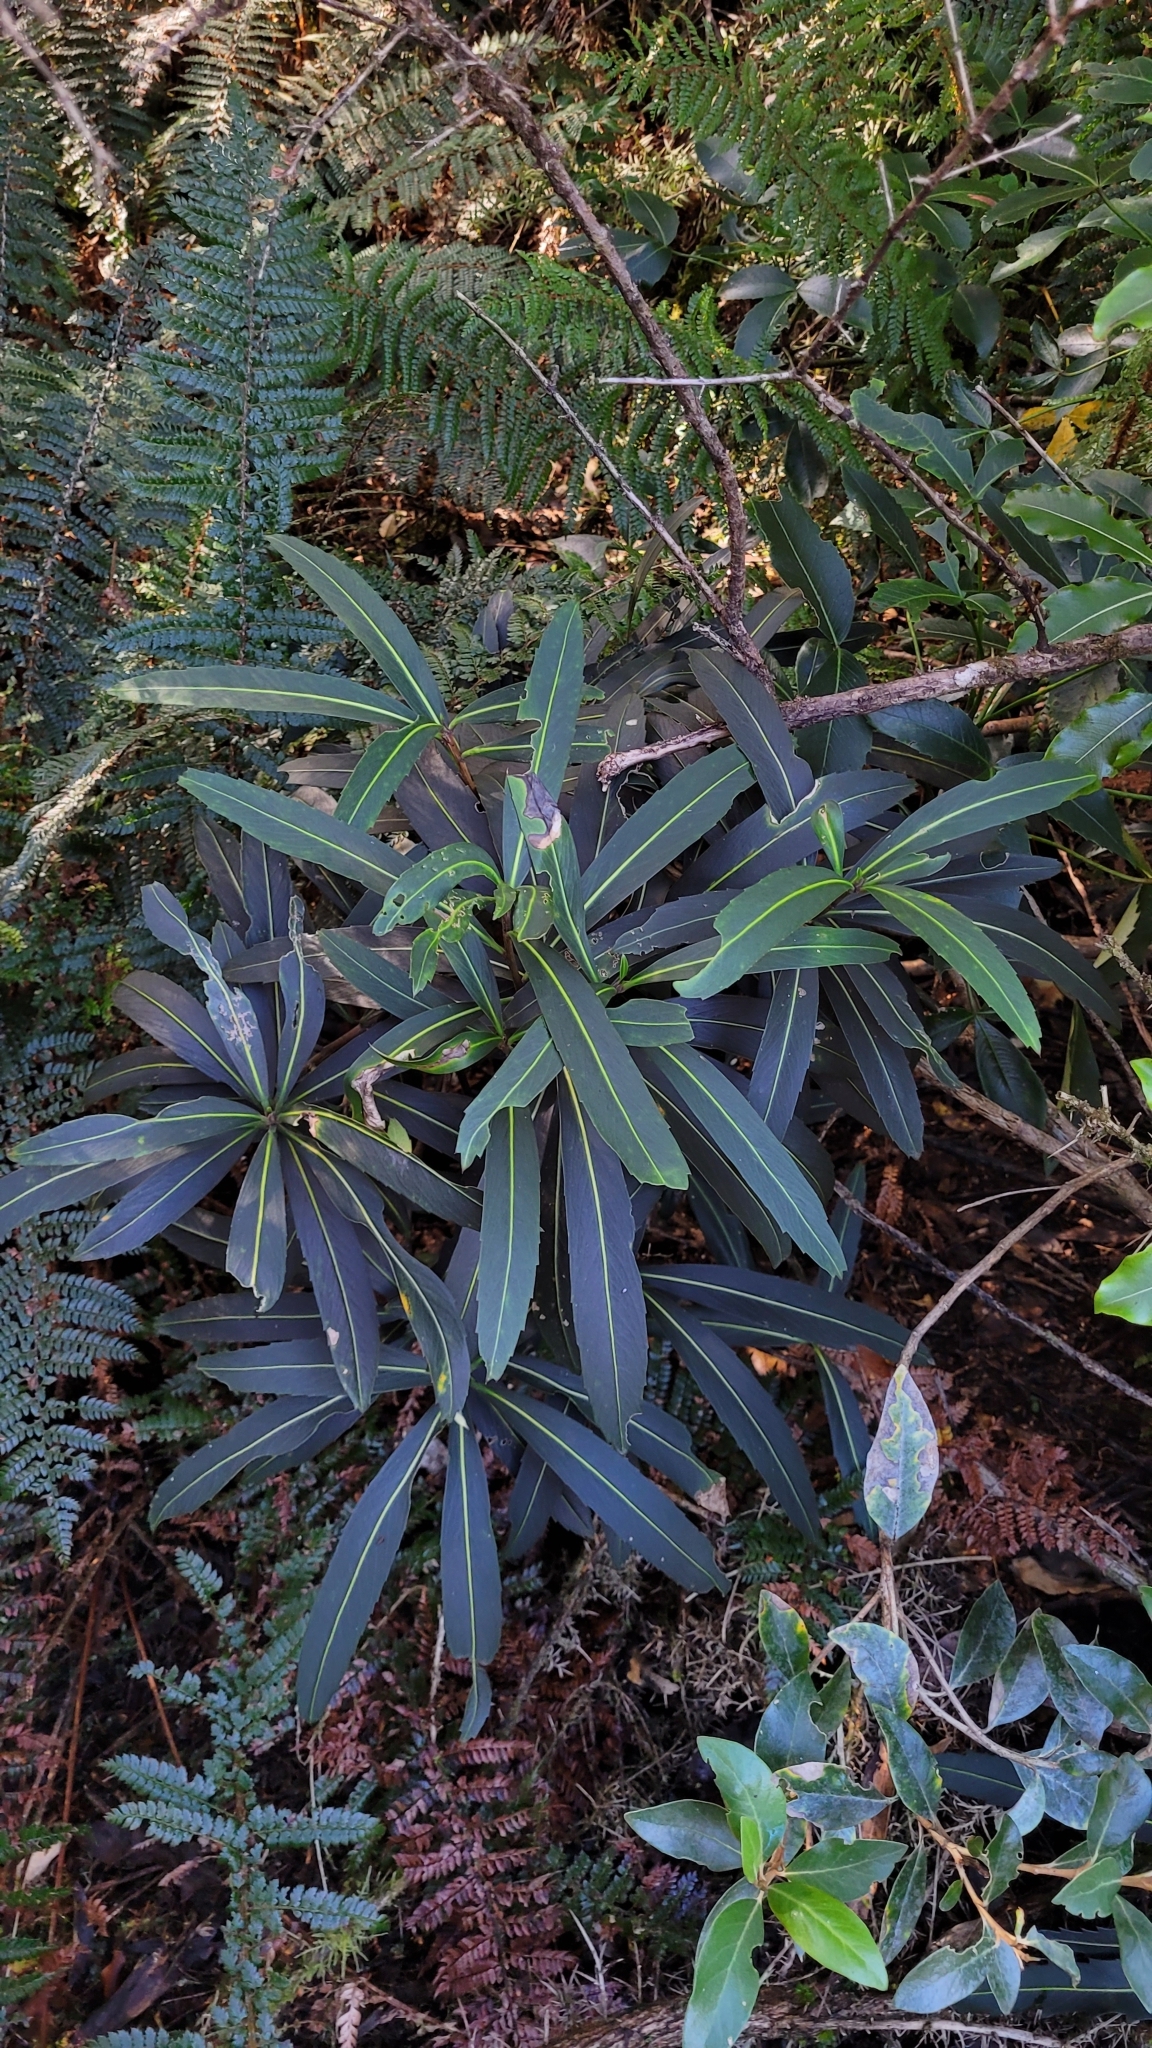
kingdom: Plantae
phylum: Tracheophyta
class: Magnoliopsida
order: Apiales
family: Araliaceae
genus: Pseudopanax
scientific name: Pseudopanax crassifolius
